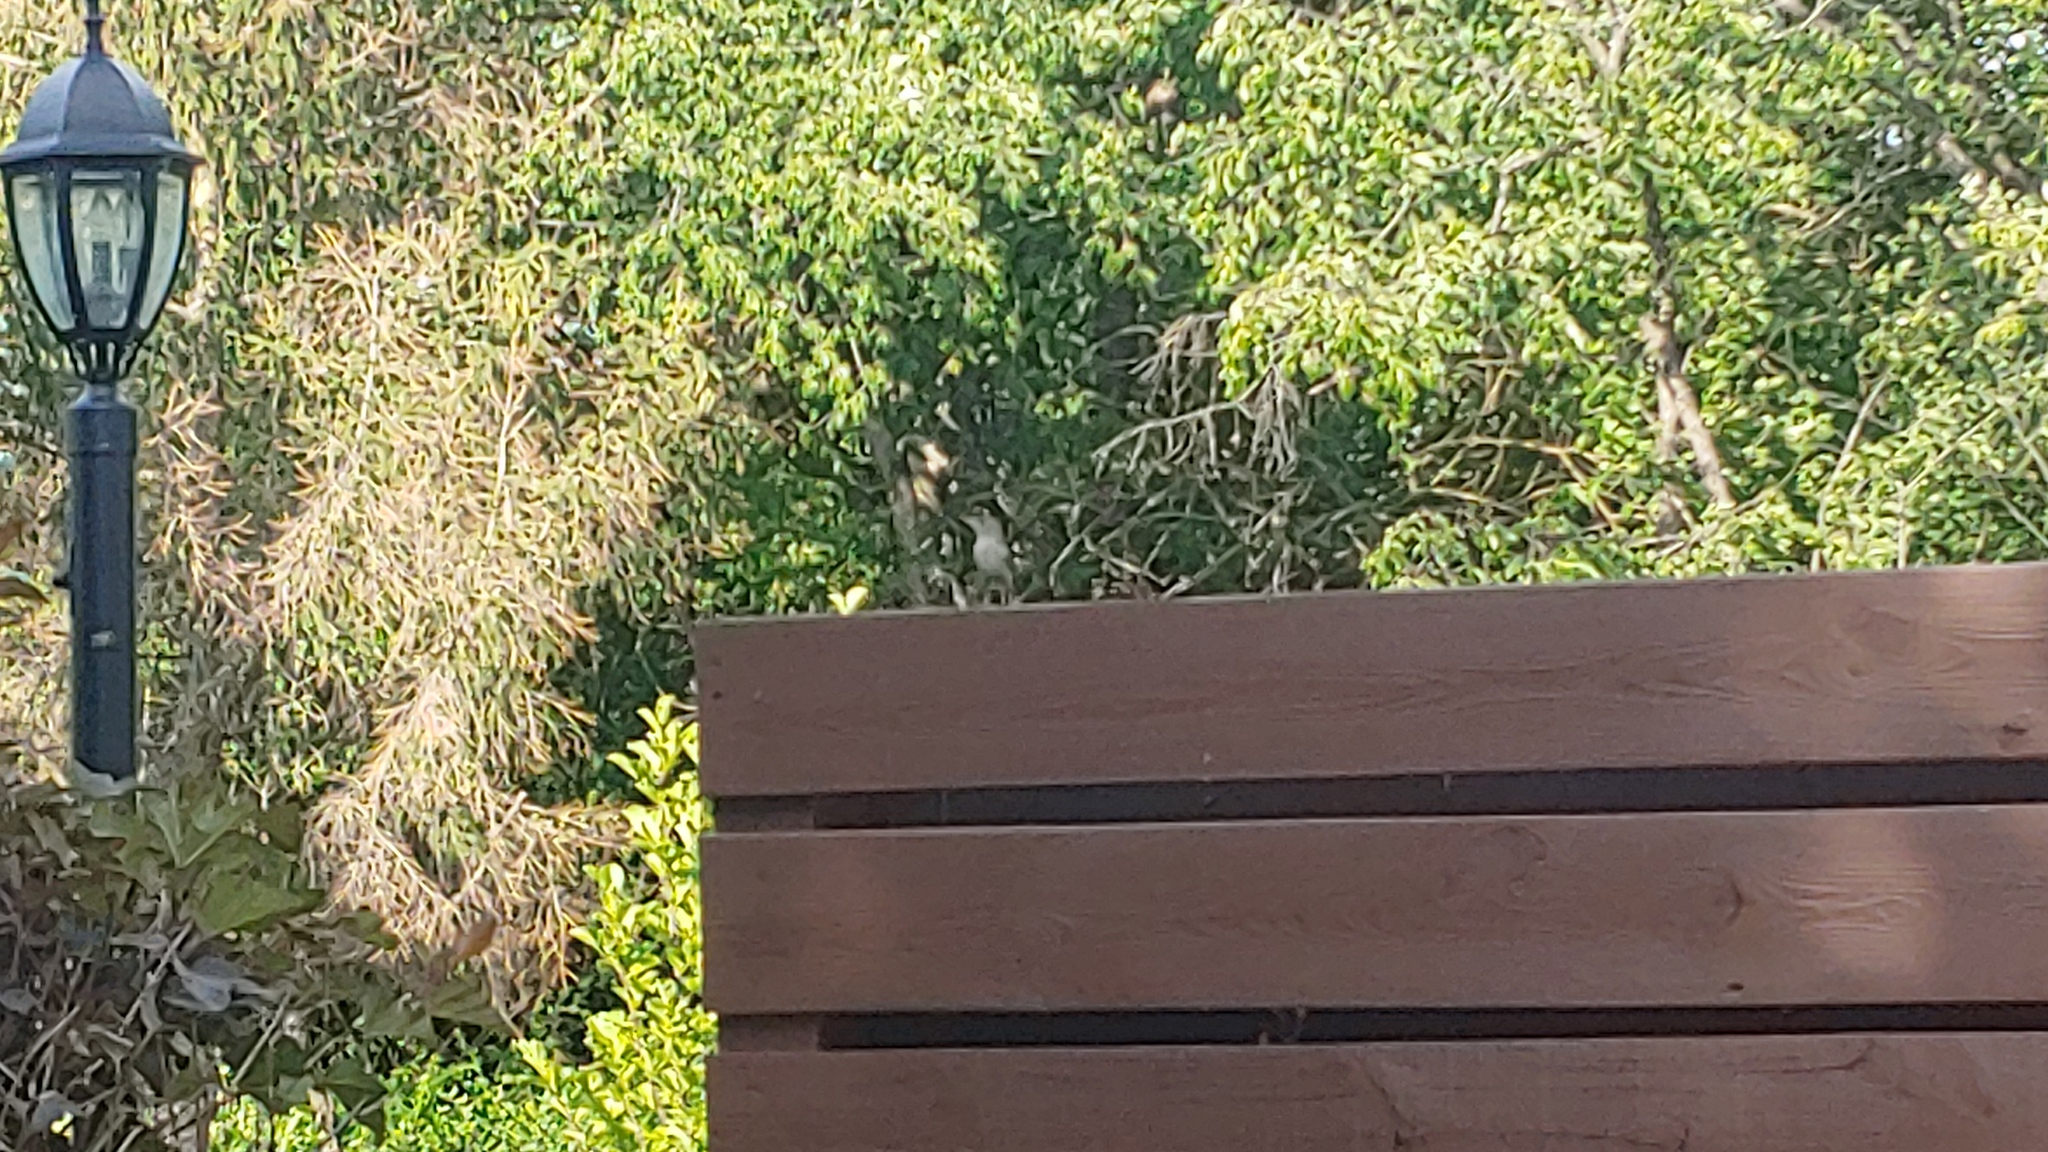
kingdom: Animalia
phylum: Chordata
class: Aves
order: Passeriformes
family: Troglodytidae
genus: Troglodytes
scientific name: Troglodytes aedon
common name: House wren
